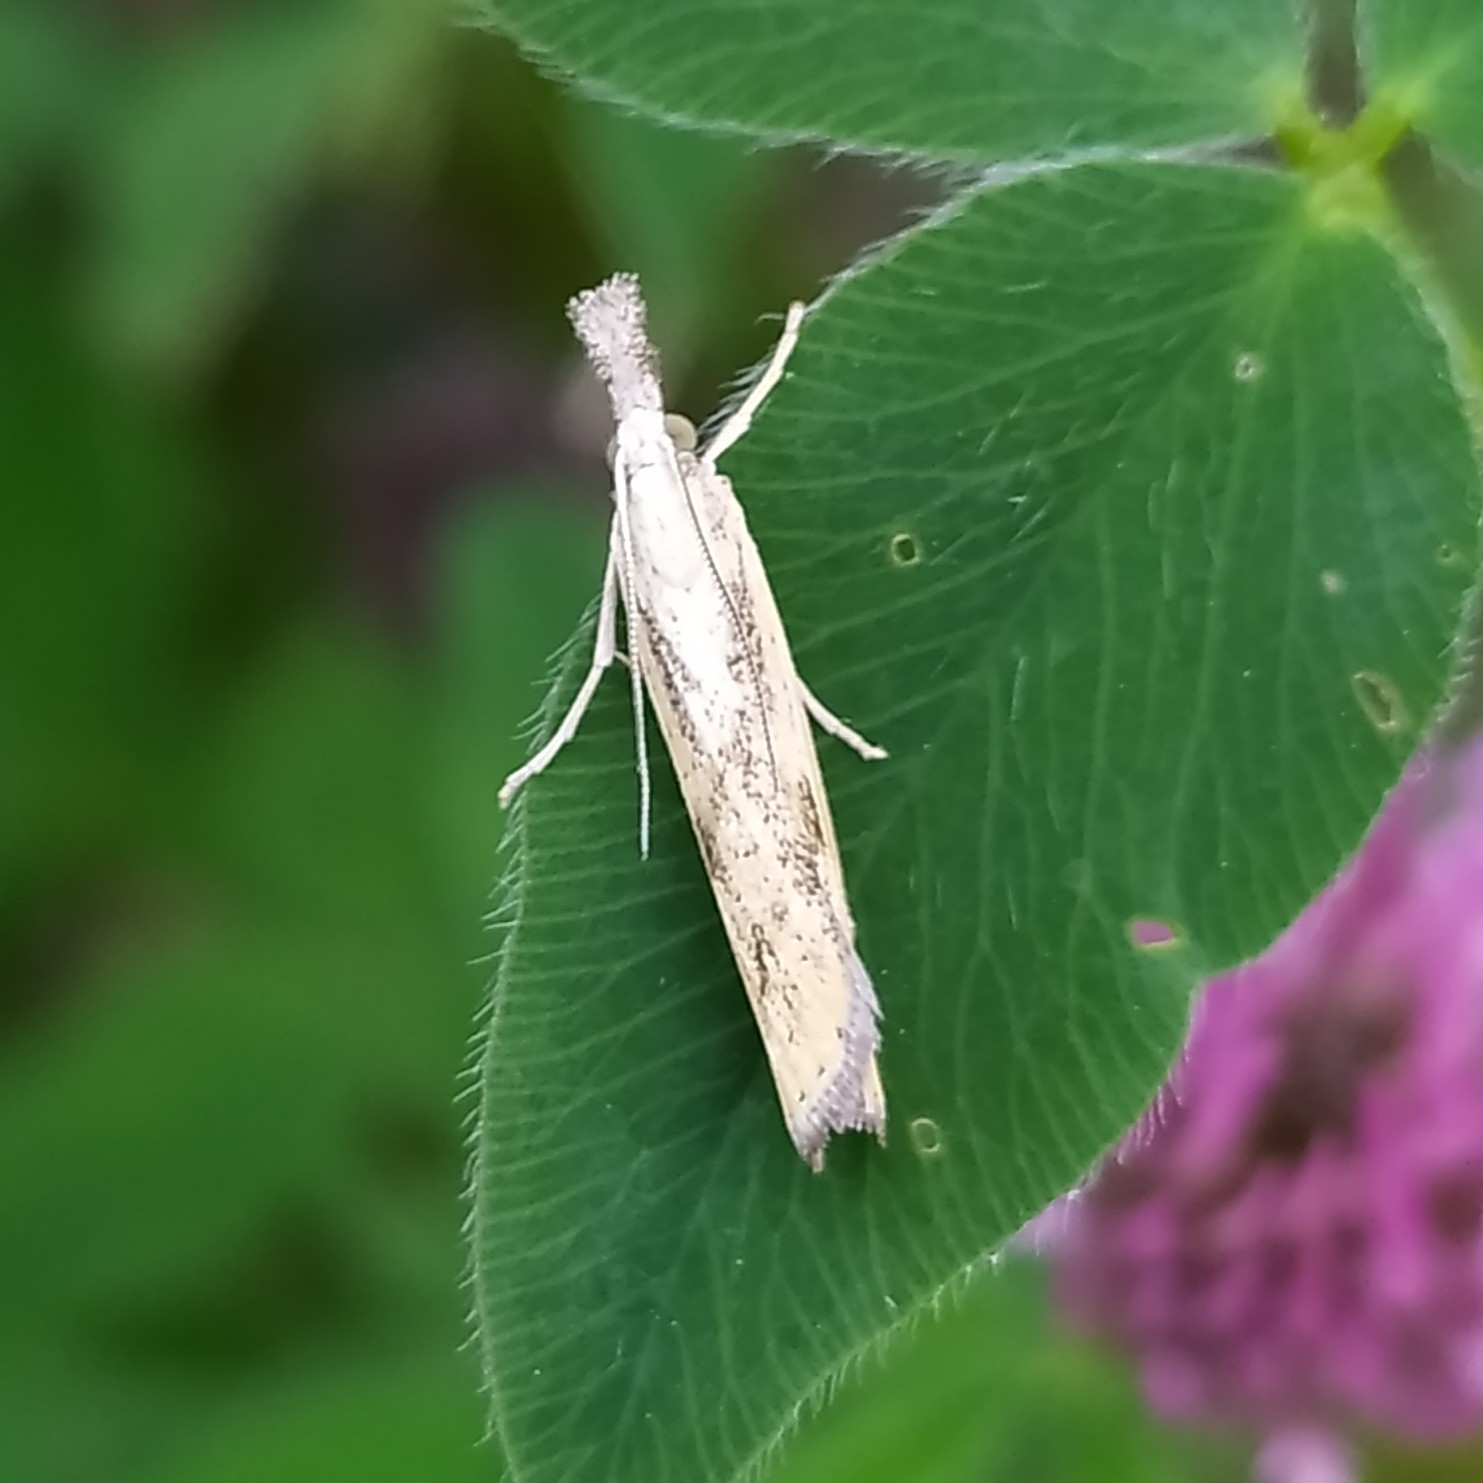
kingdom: Animalia
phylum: Arthropoda
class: Insecta
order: Lepidoptera
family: Crambidae
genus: Agriphila
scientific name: Agriphila inquinatella
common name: Barred grass-veneer
